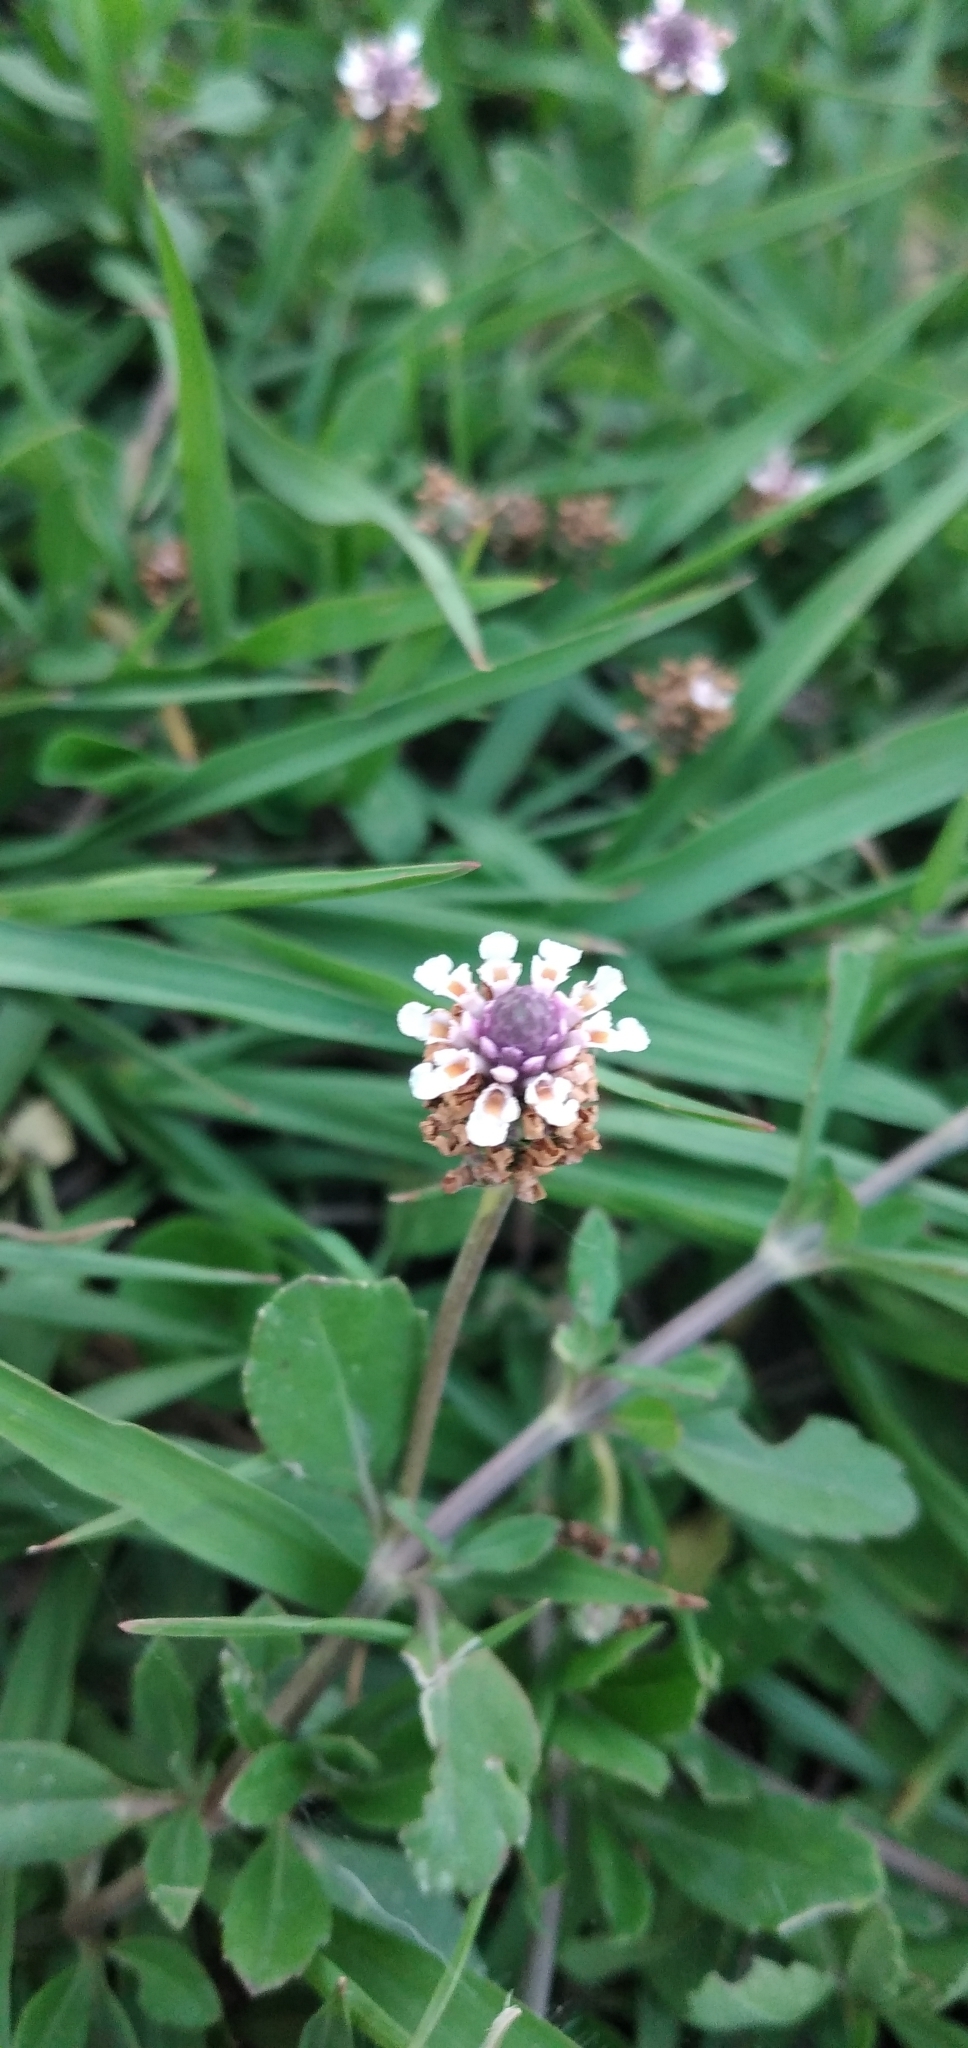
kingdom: Plantae
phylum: Tracheophyta
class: Magnoliopsida
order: Lamiales
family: Verbenaceae
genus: Phyla
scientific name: Phyla nodiflora
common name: Frogfruit
